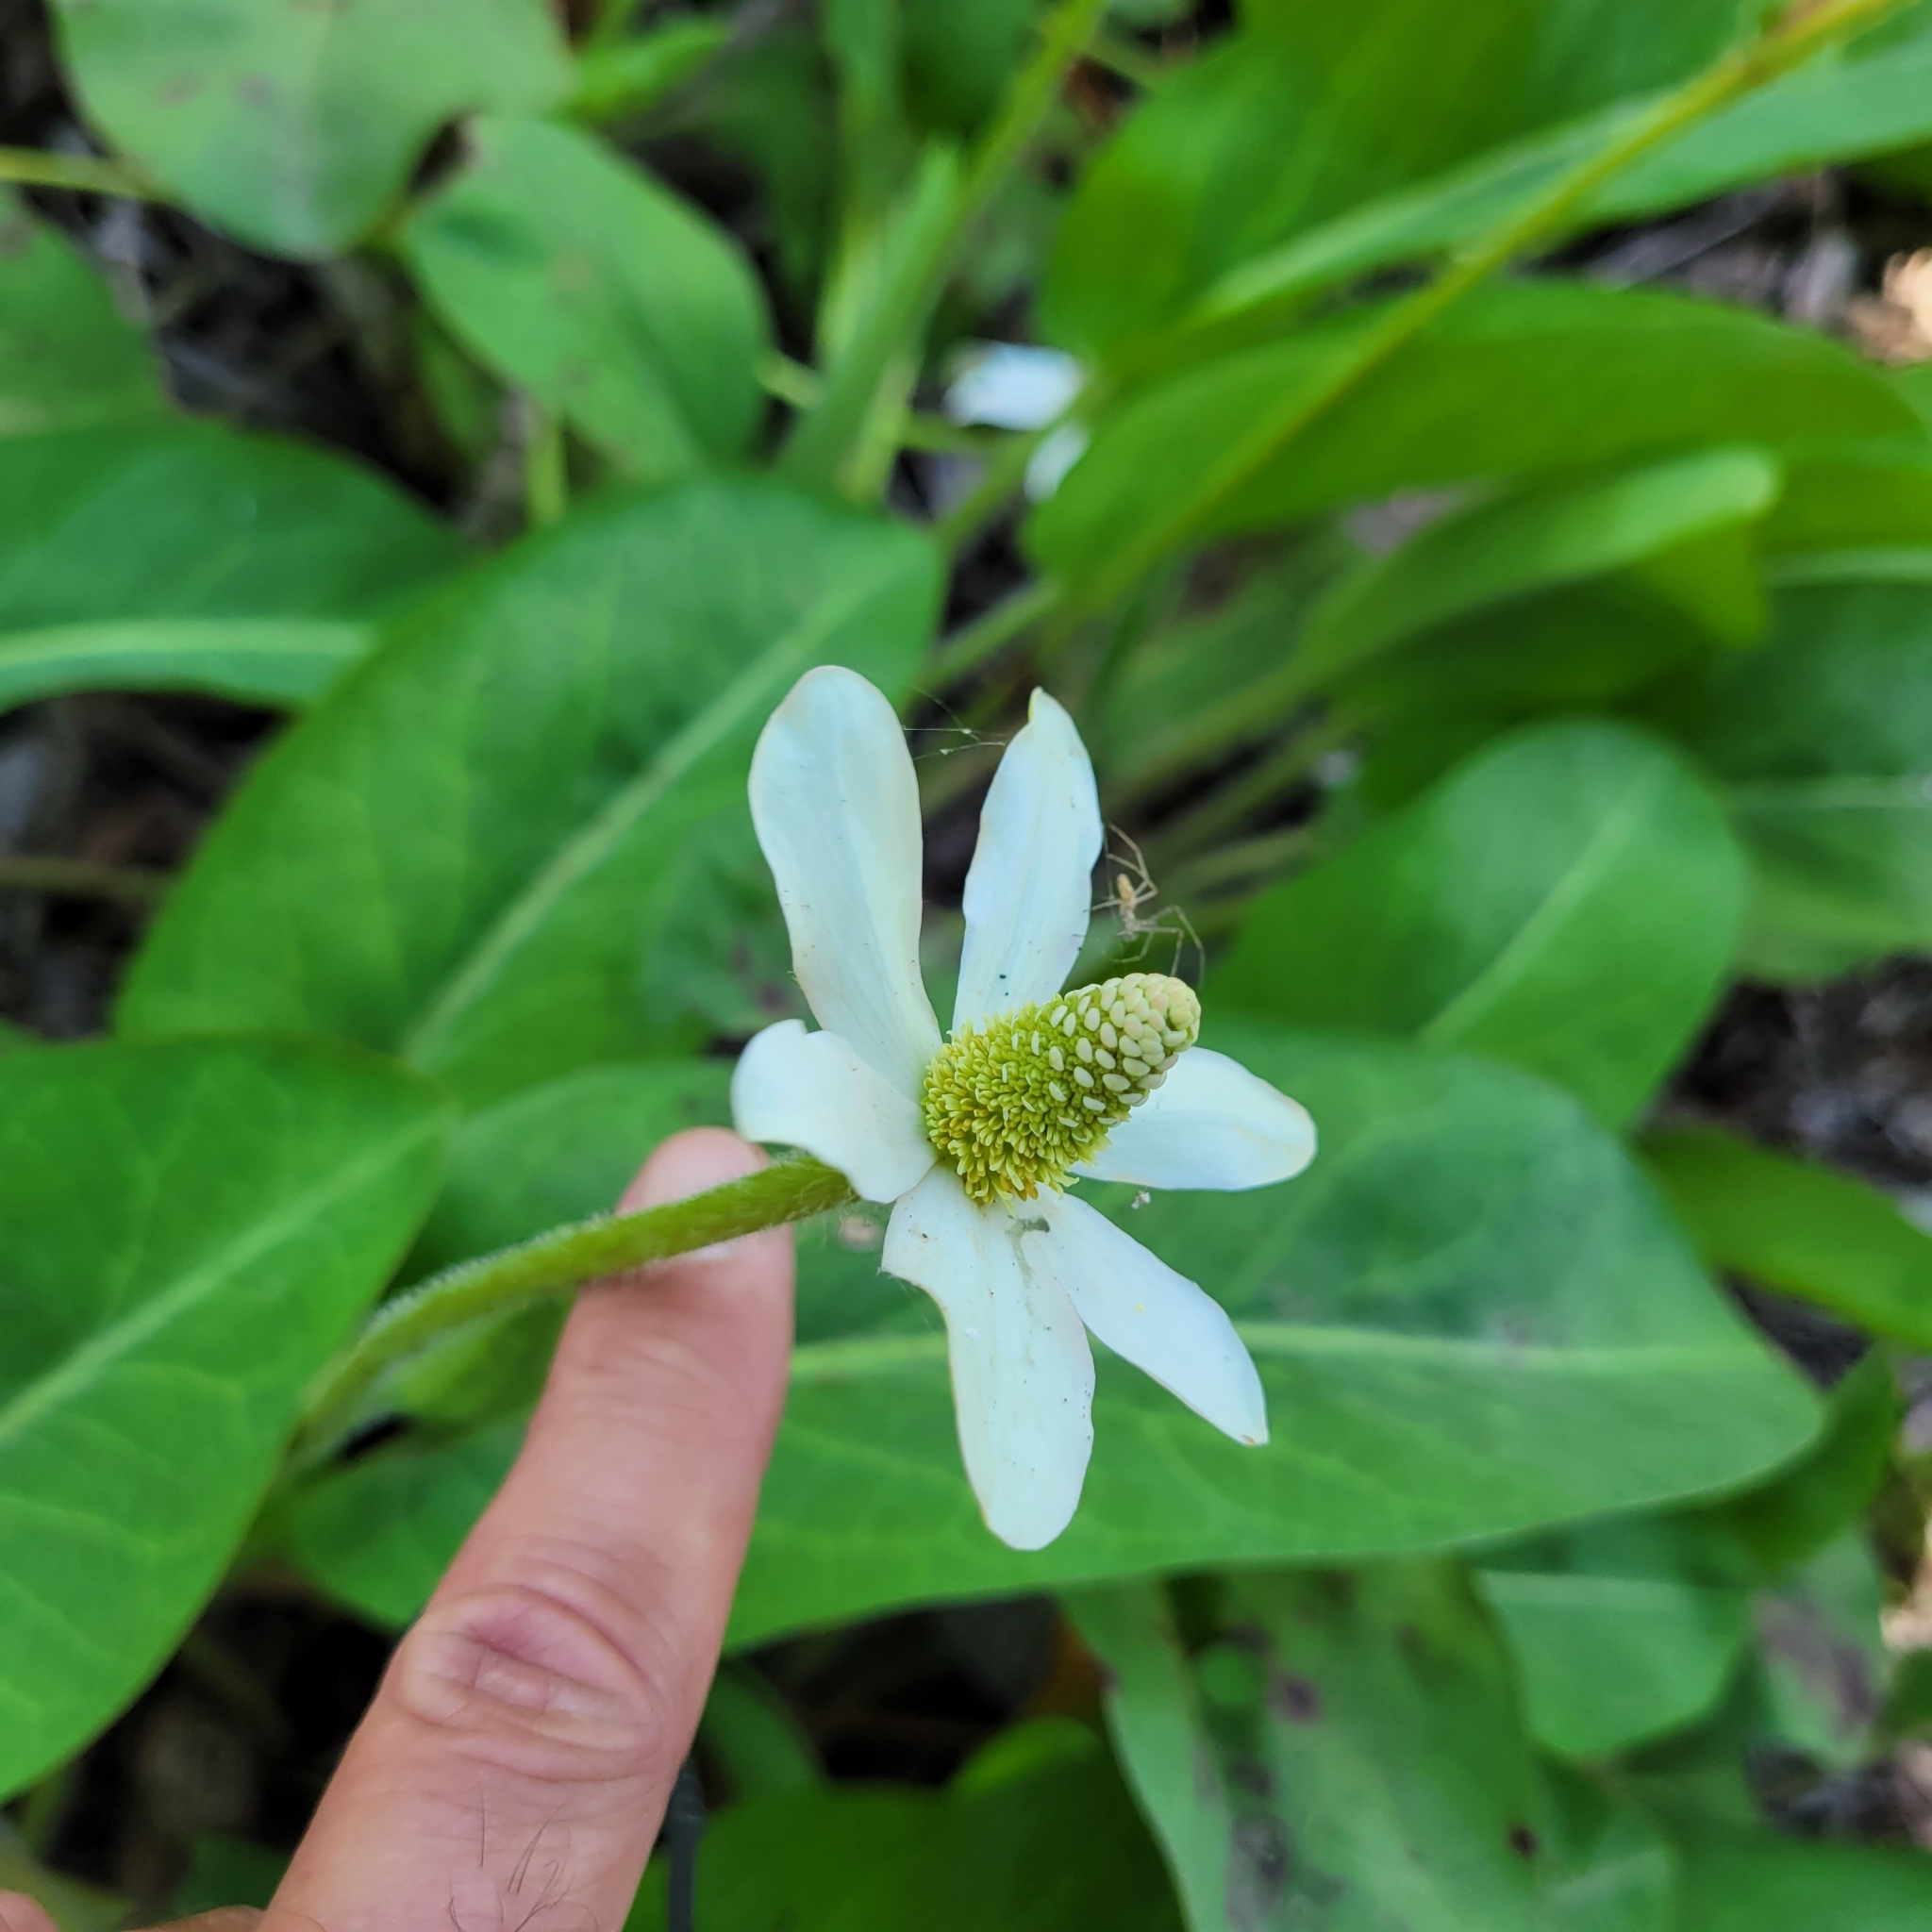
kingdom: Plantae
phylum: Tracheophyta
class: Magnoliopsida
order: Piperales
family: Saururaceae
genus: Anemopsis
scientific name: Anemopsis californica
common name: Apache-beads
